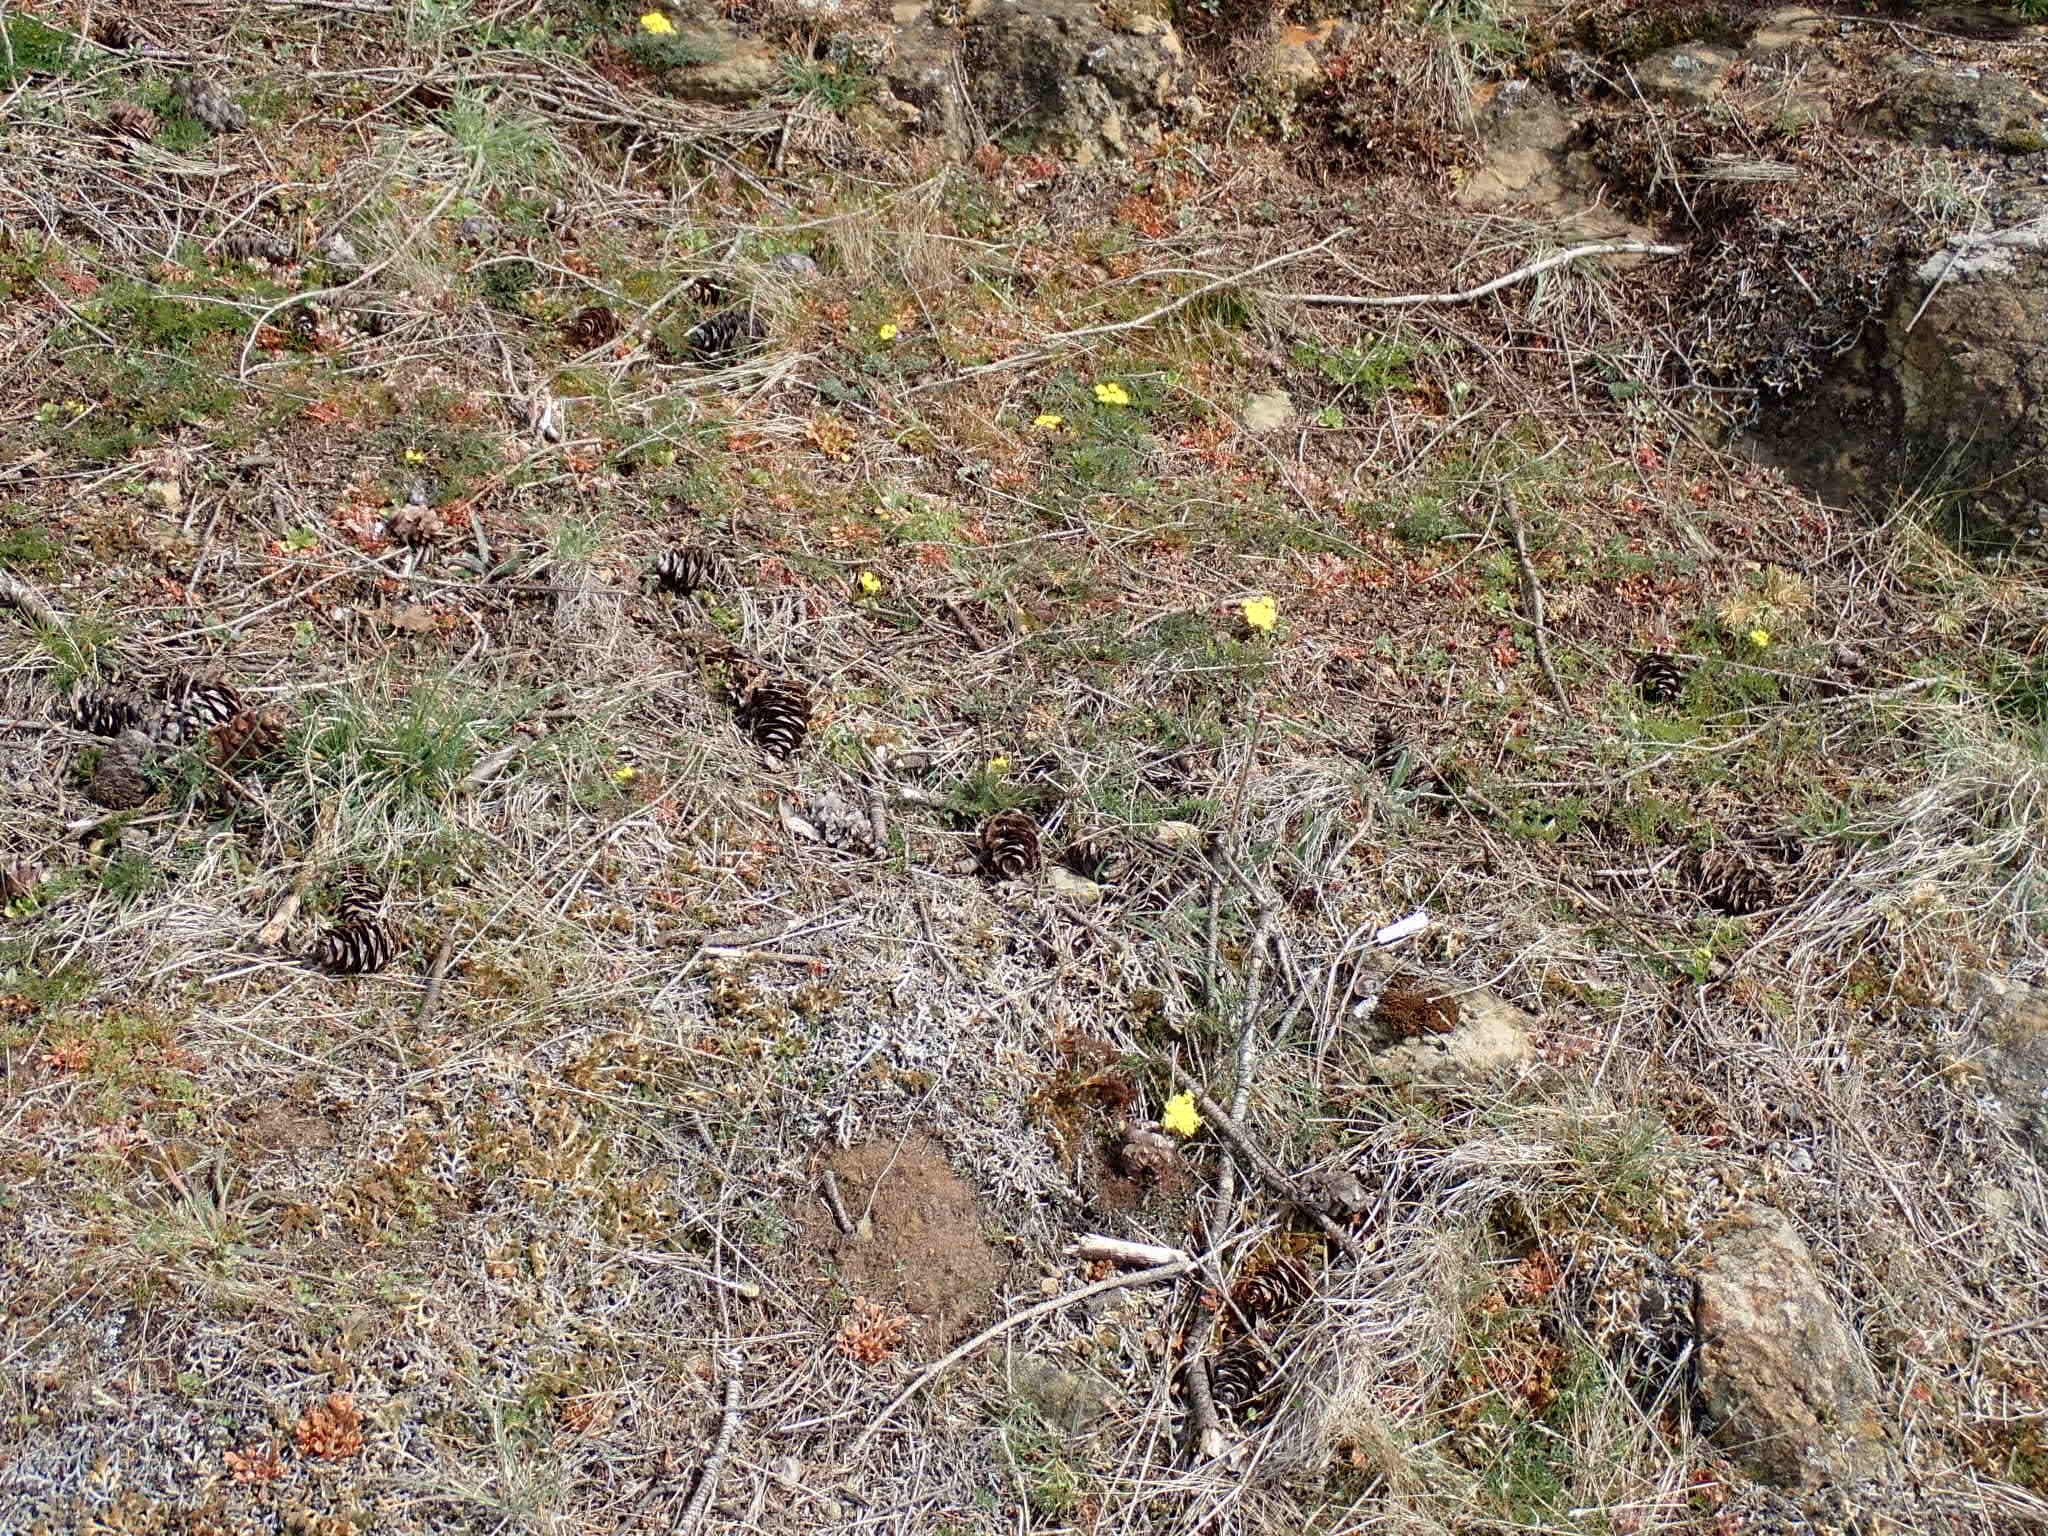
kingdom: Plantae
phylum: Tracheophyta
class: Magnoliopsida
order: Apiales
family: Apiaceae
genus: Lomatium
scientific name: Lomatium utriculatum
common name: Fine-leaf desert-parsley
